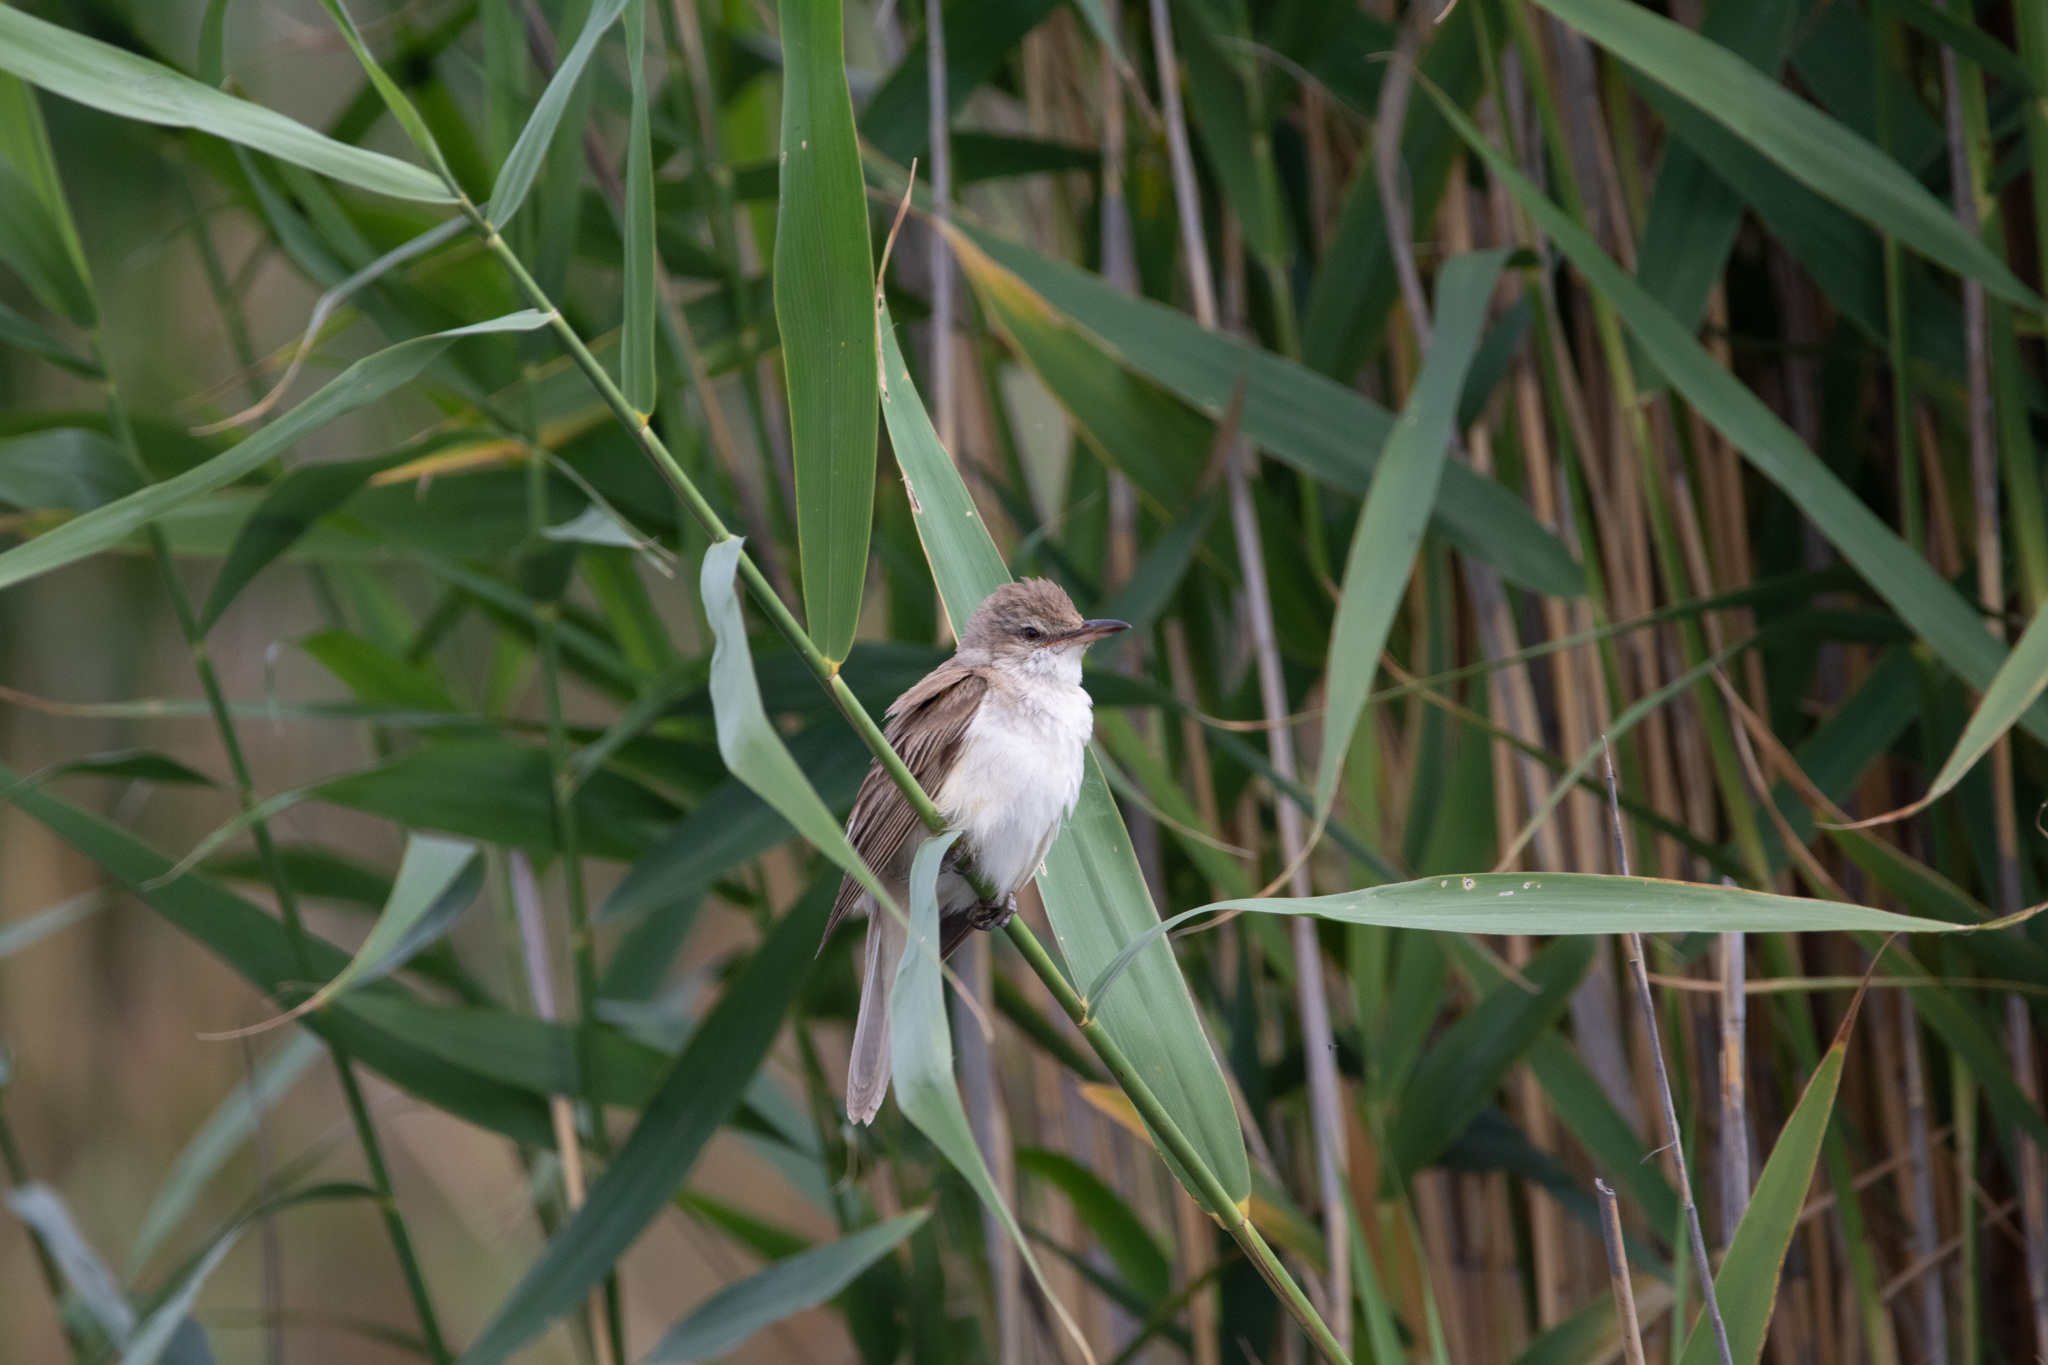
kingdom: Animalia
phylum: Chordata
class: Aves
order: Passeriformes
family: Acrocephalidae
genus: Acrocephalus
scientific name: Acrocephalus arundinaceus
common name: Great reed warbler
